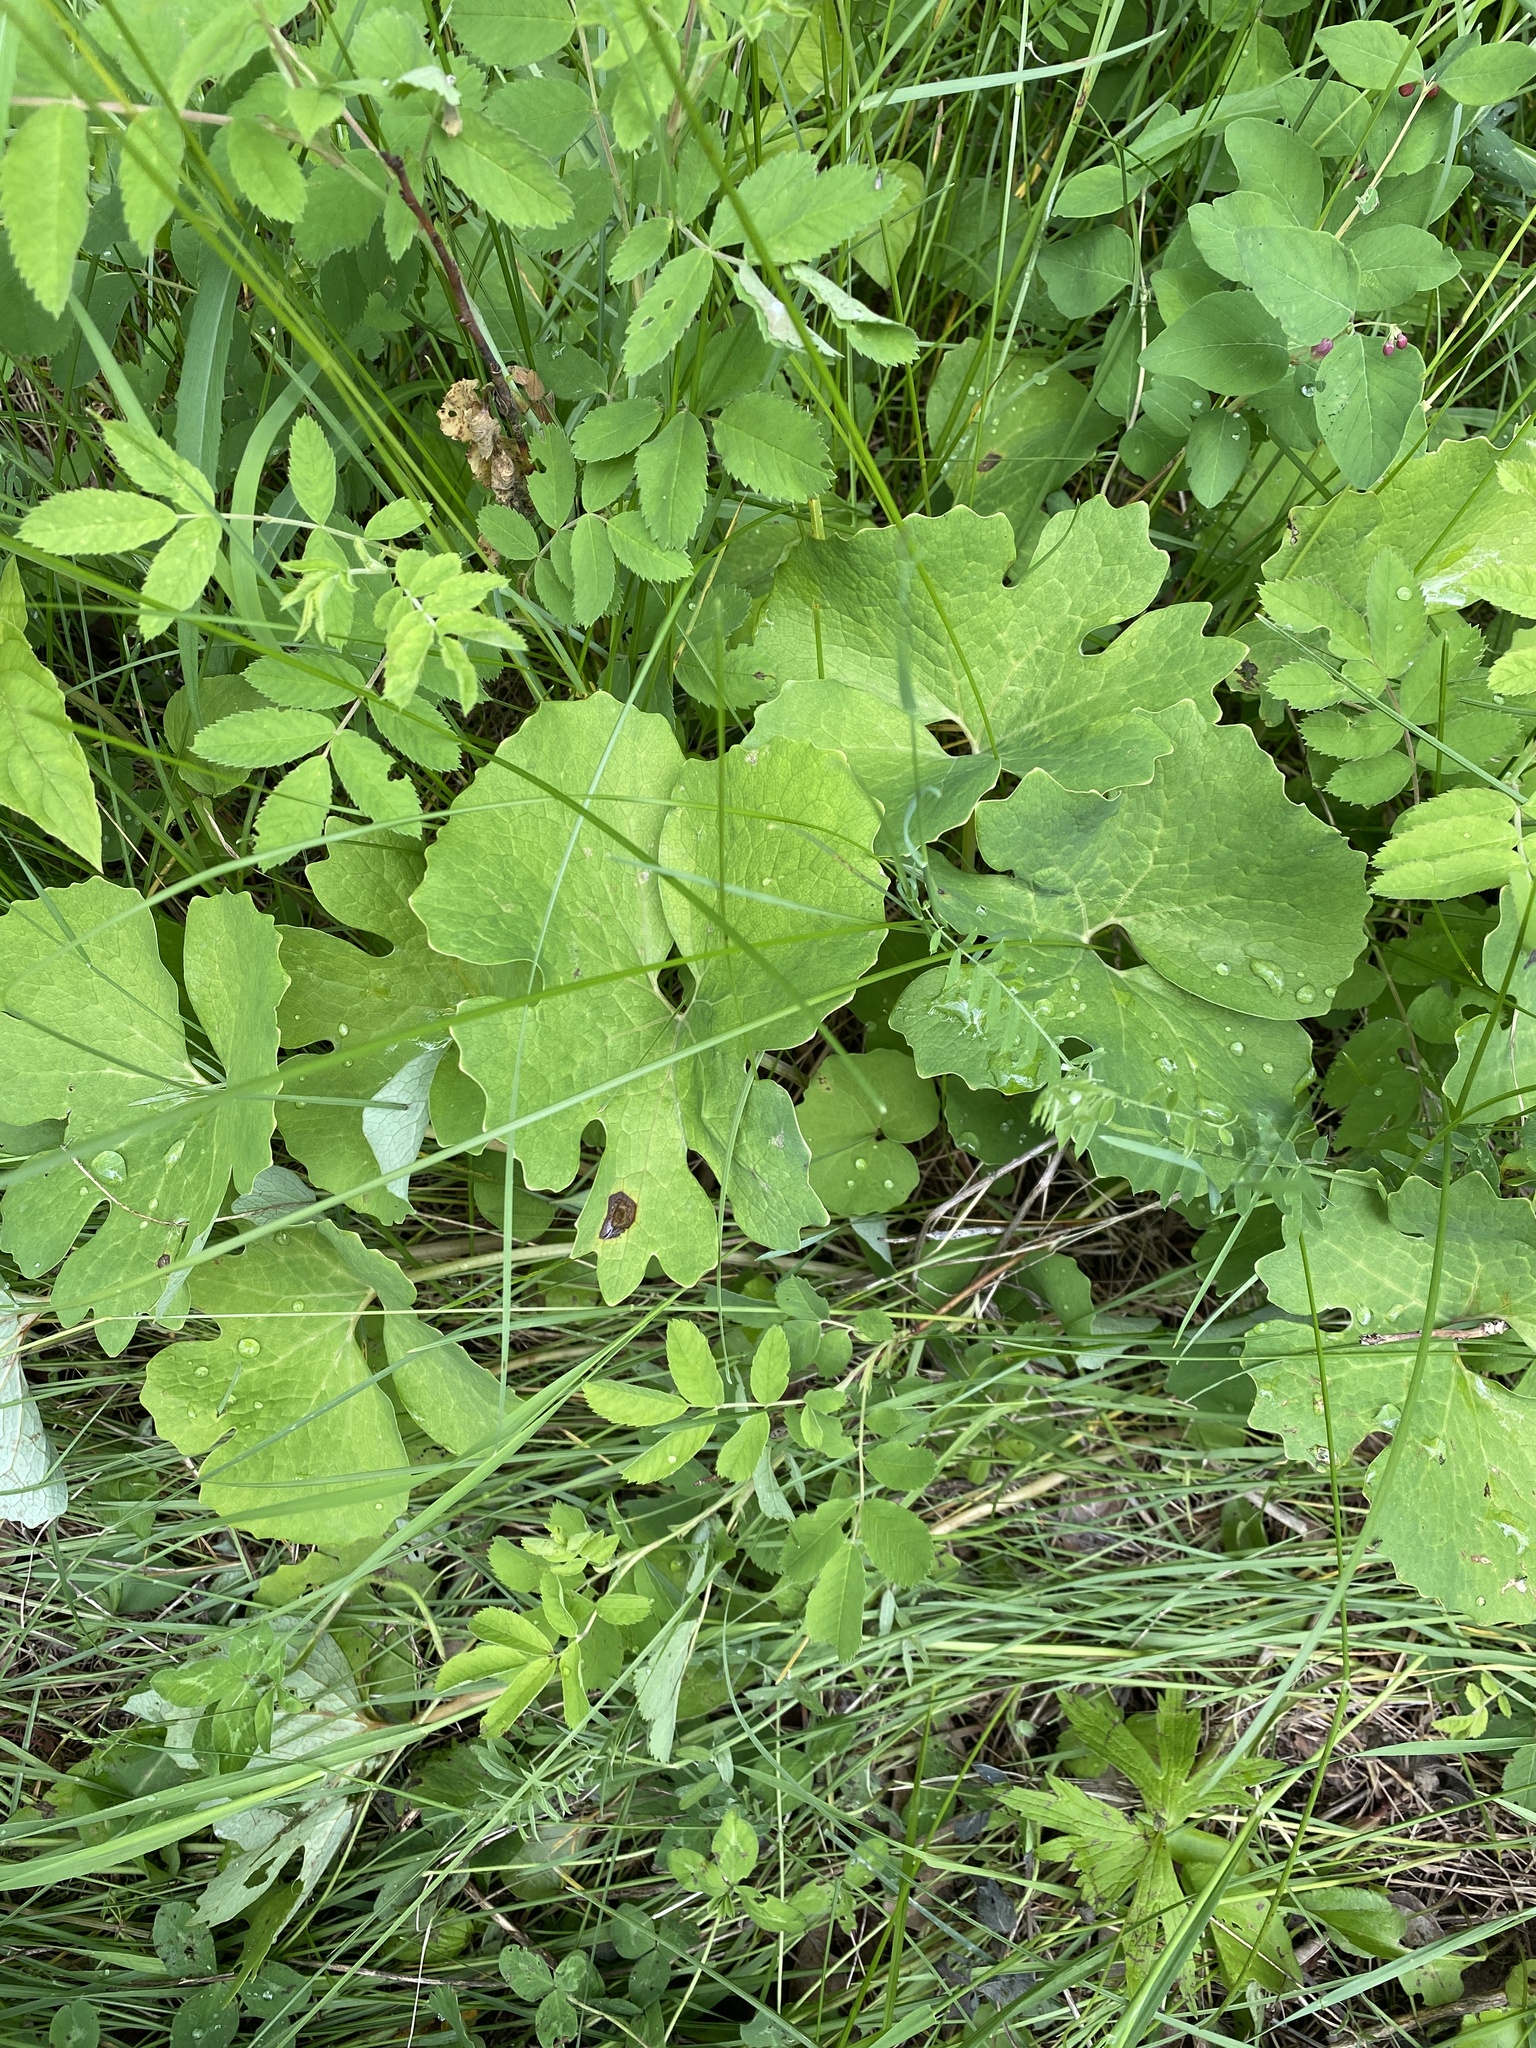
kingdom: Plantae
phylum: Tracheophyta
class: Magnoliopsida
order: Ranunculales
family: Papaveraceae
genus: Sanguinaria
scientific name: Sanguinaria canadensis
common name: Bloodroot
